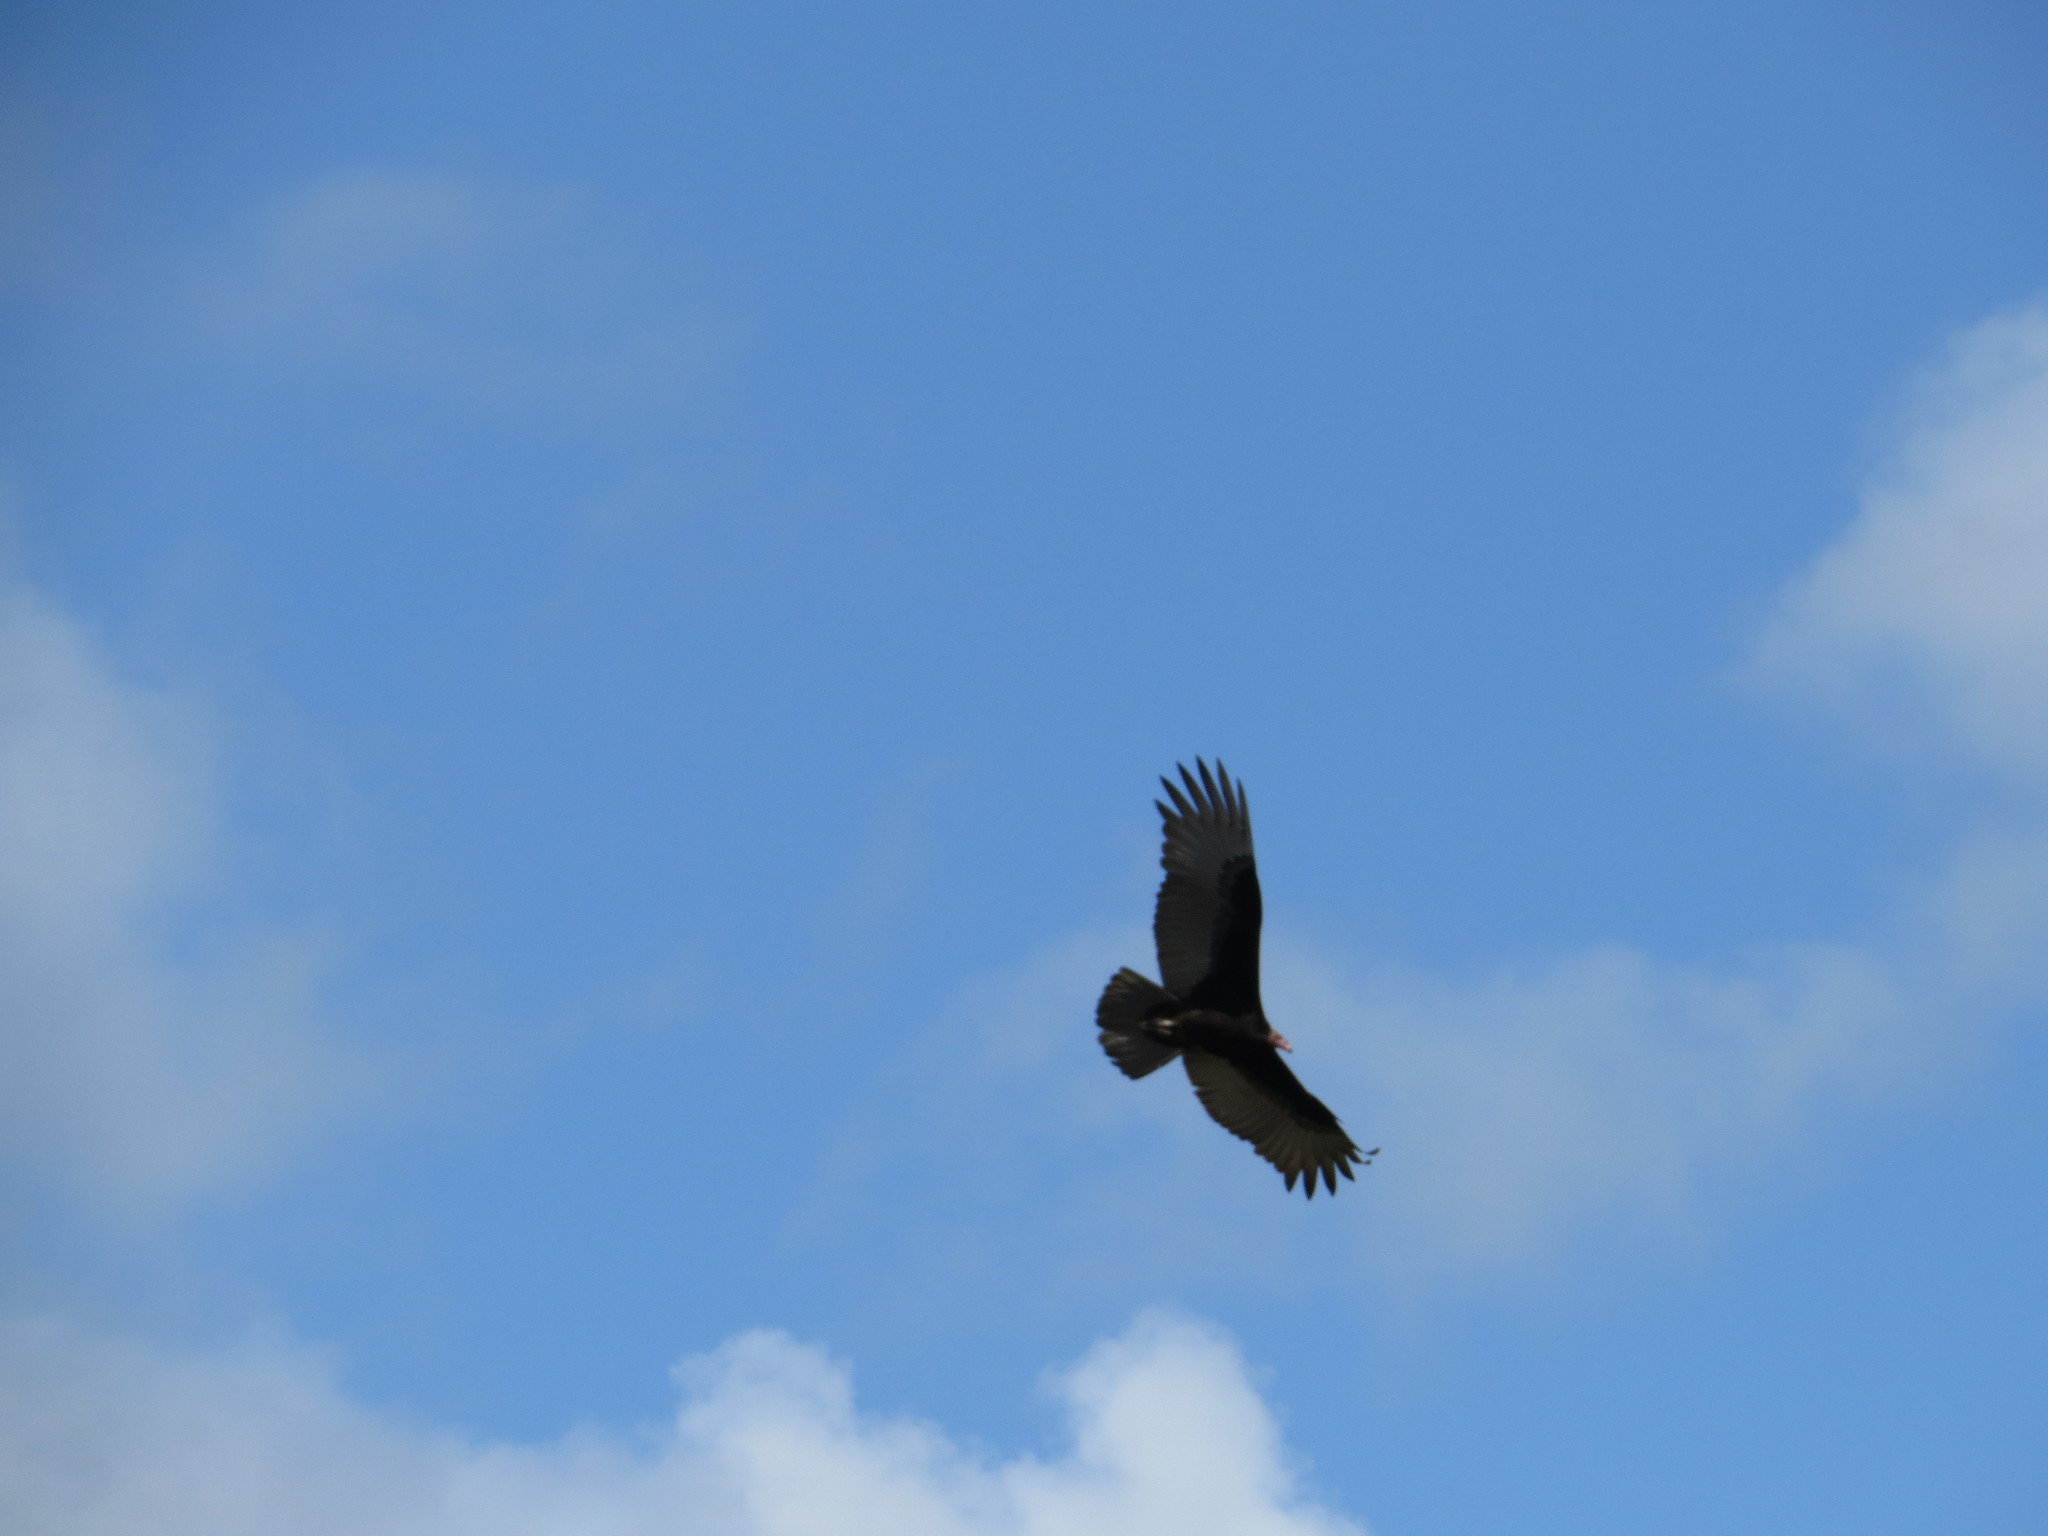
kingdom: Animalia
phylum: Chordata
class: Aves
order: Accipitriformes
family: Cathartidae
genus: Cathartes
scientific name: Cathartes aura
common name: Turkey vulture
